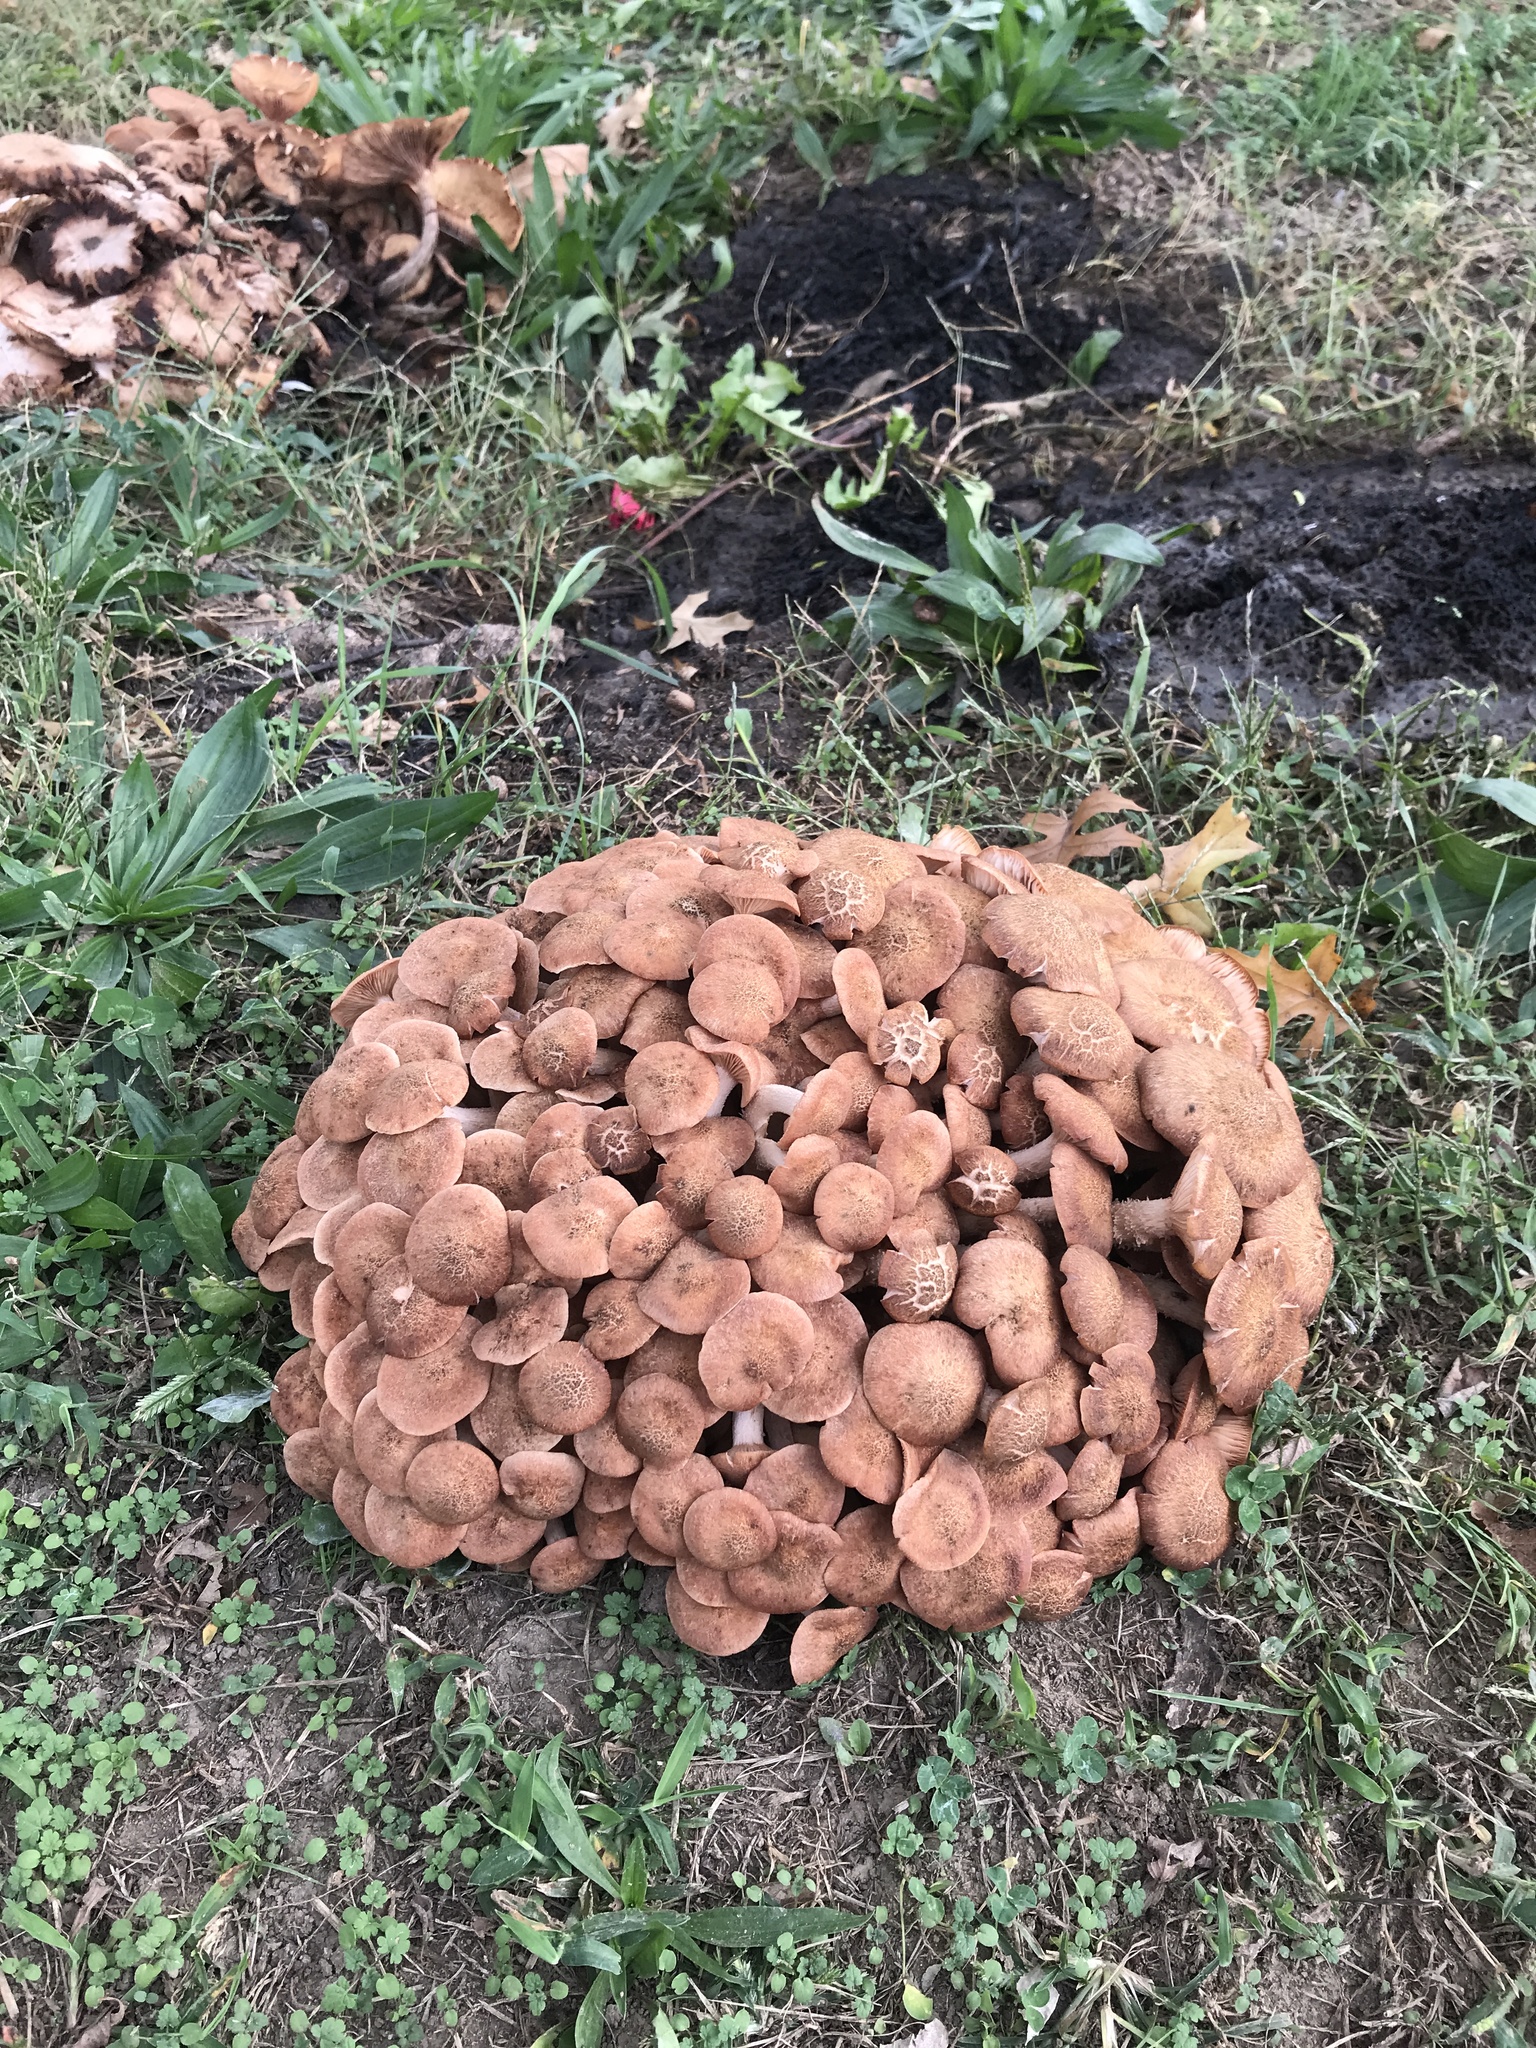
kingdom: Fungi
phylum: Basidiomycota
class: Agaricomycetes
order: Agaricales
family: Physalacriaceae
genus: Desarmillaria
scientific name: Desarmillaria caespitosa
